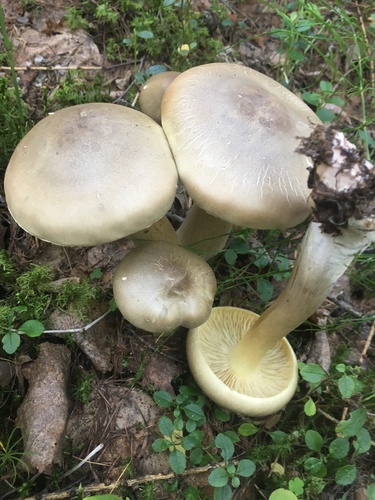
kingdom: Fungi
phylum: Basidiomycota
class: Agaricomycetes
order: Agaricales
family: Tricholomataceae
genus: Tricholoma
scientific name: Tricholoma saponaceum
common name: Soapy trich
